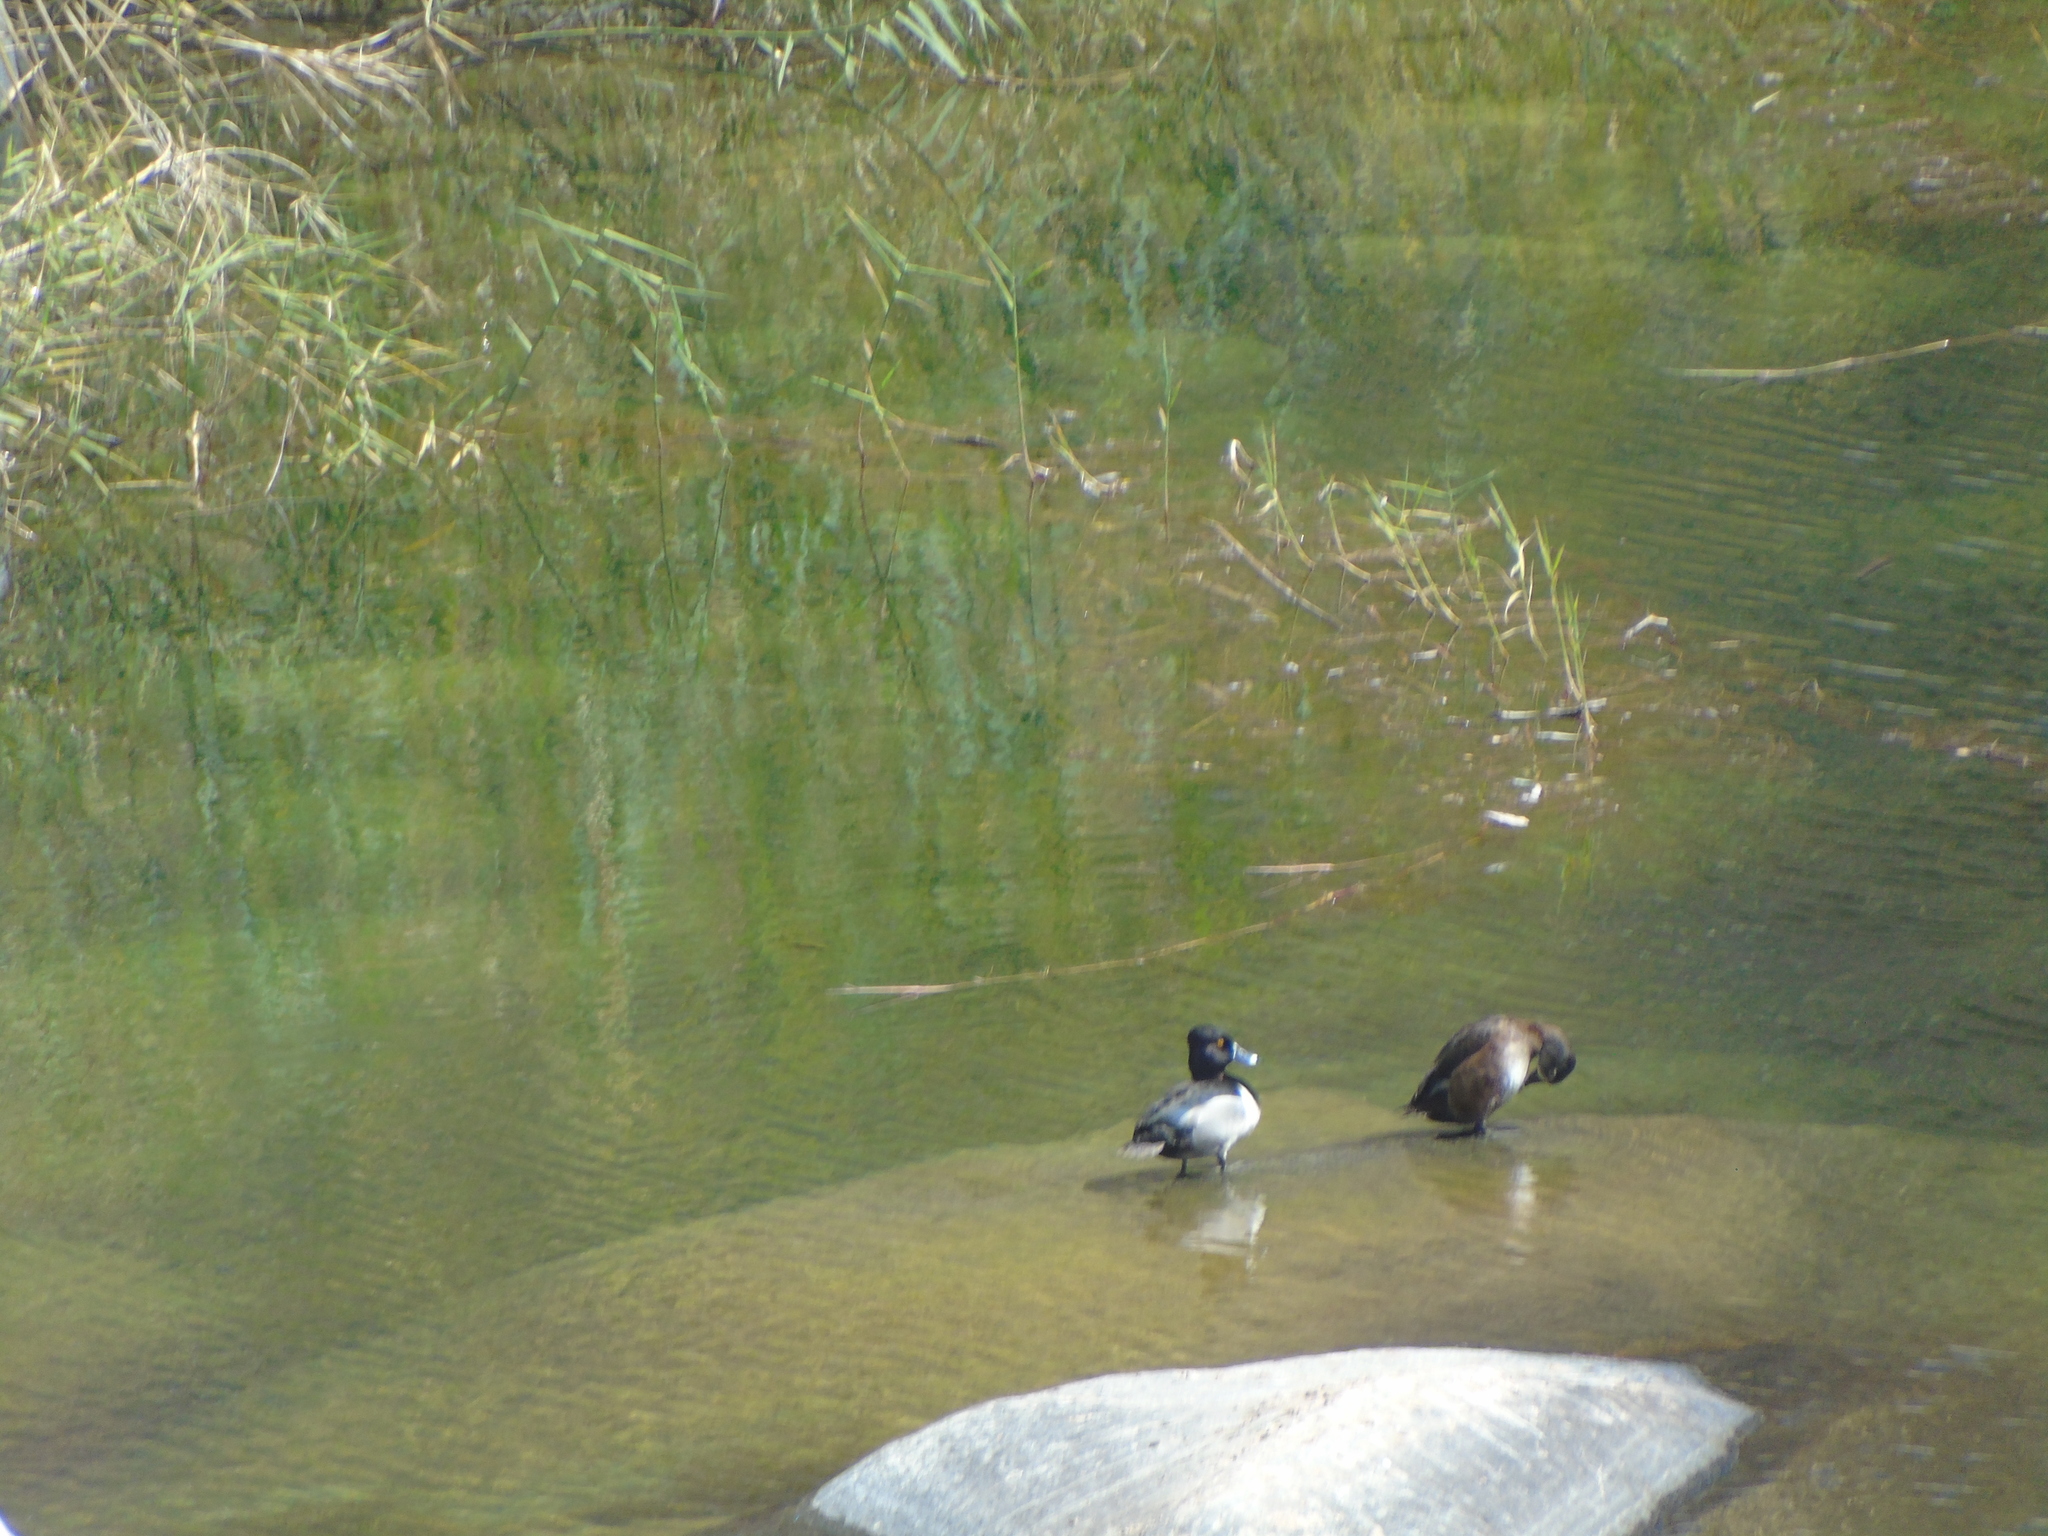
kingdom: Animalia
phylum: Chordata
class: Aves
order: Anseriformes
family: Anatidae
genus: Aythya
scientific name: Aythya collaris
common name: Ring-necked duck
